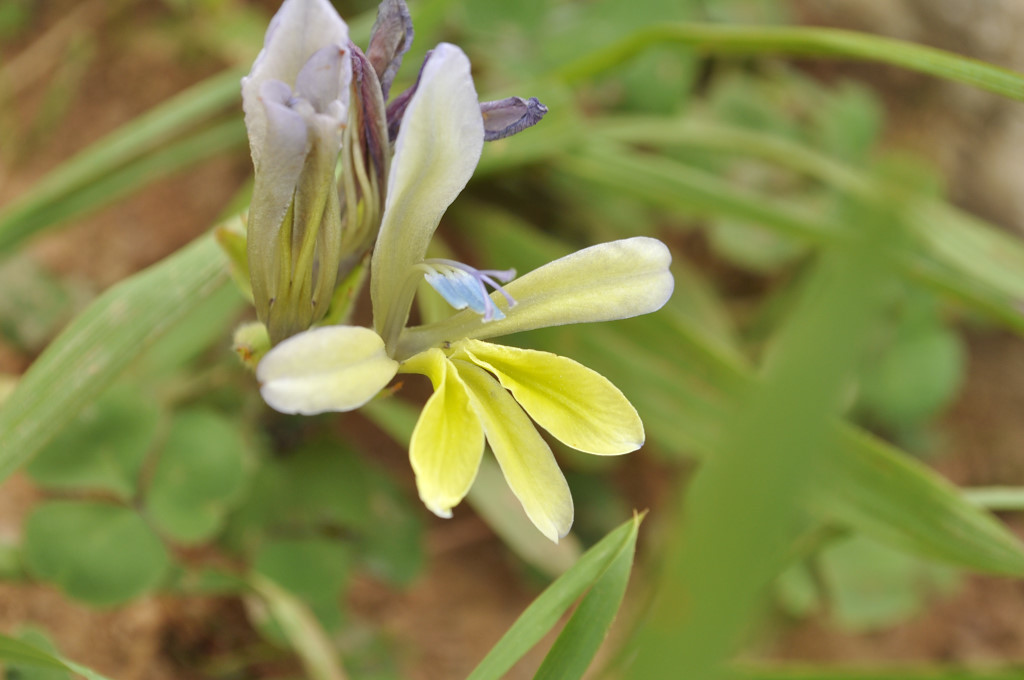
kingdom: Plantae
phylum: Tracheophyta
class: Liliopsida
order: Asparagales
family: Iridaceae
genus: Babiana
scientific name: Babiana odorata
